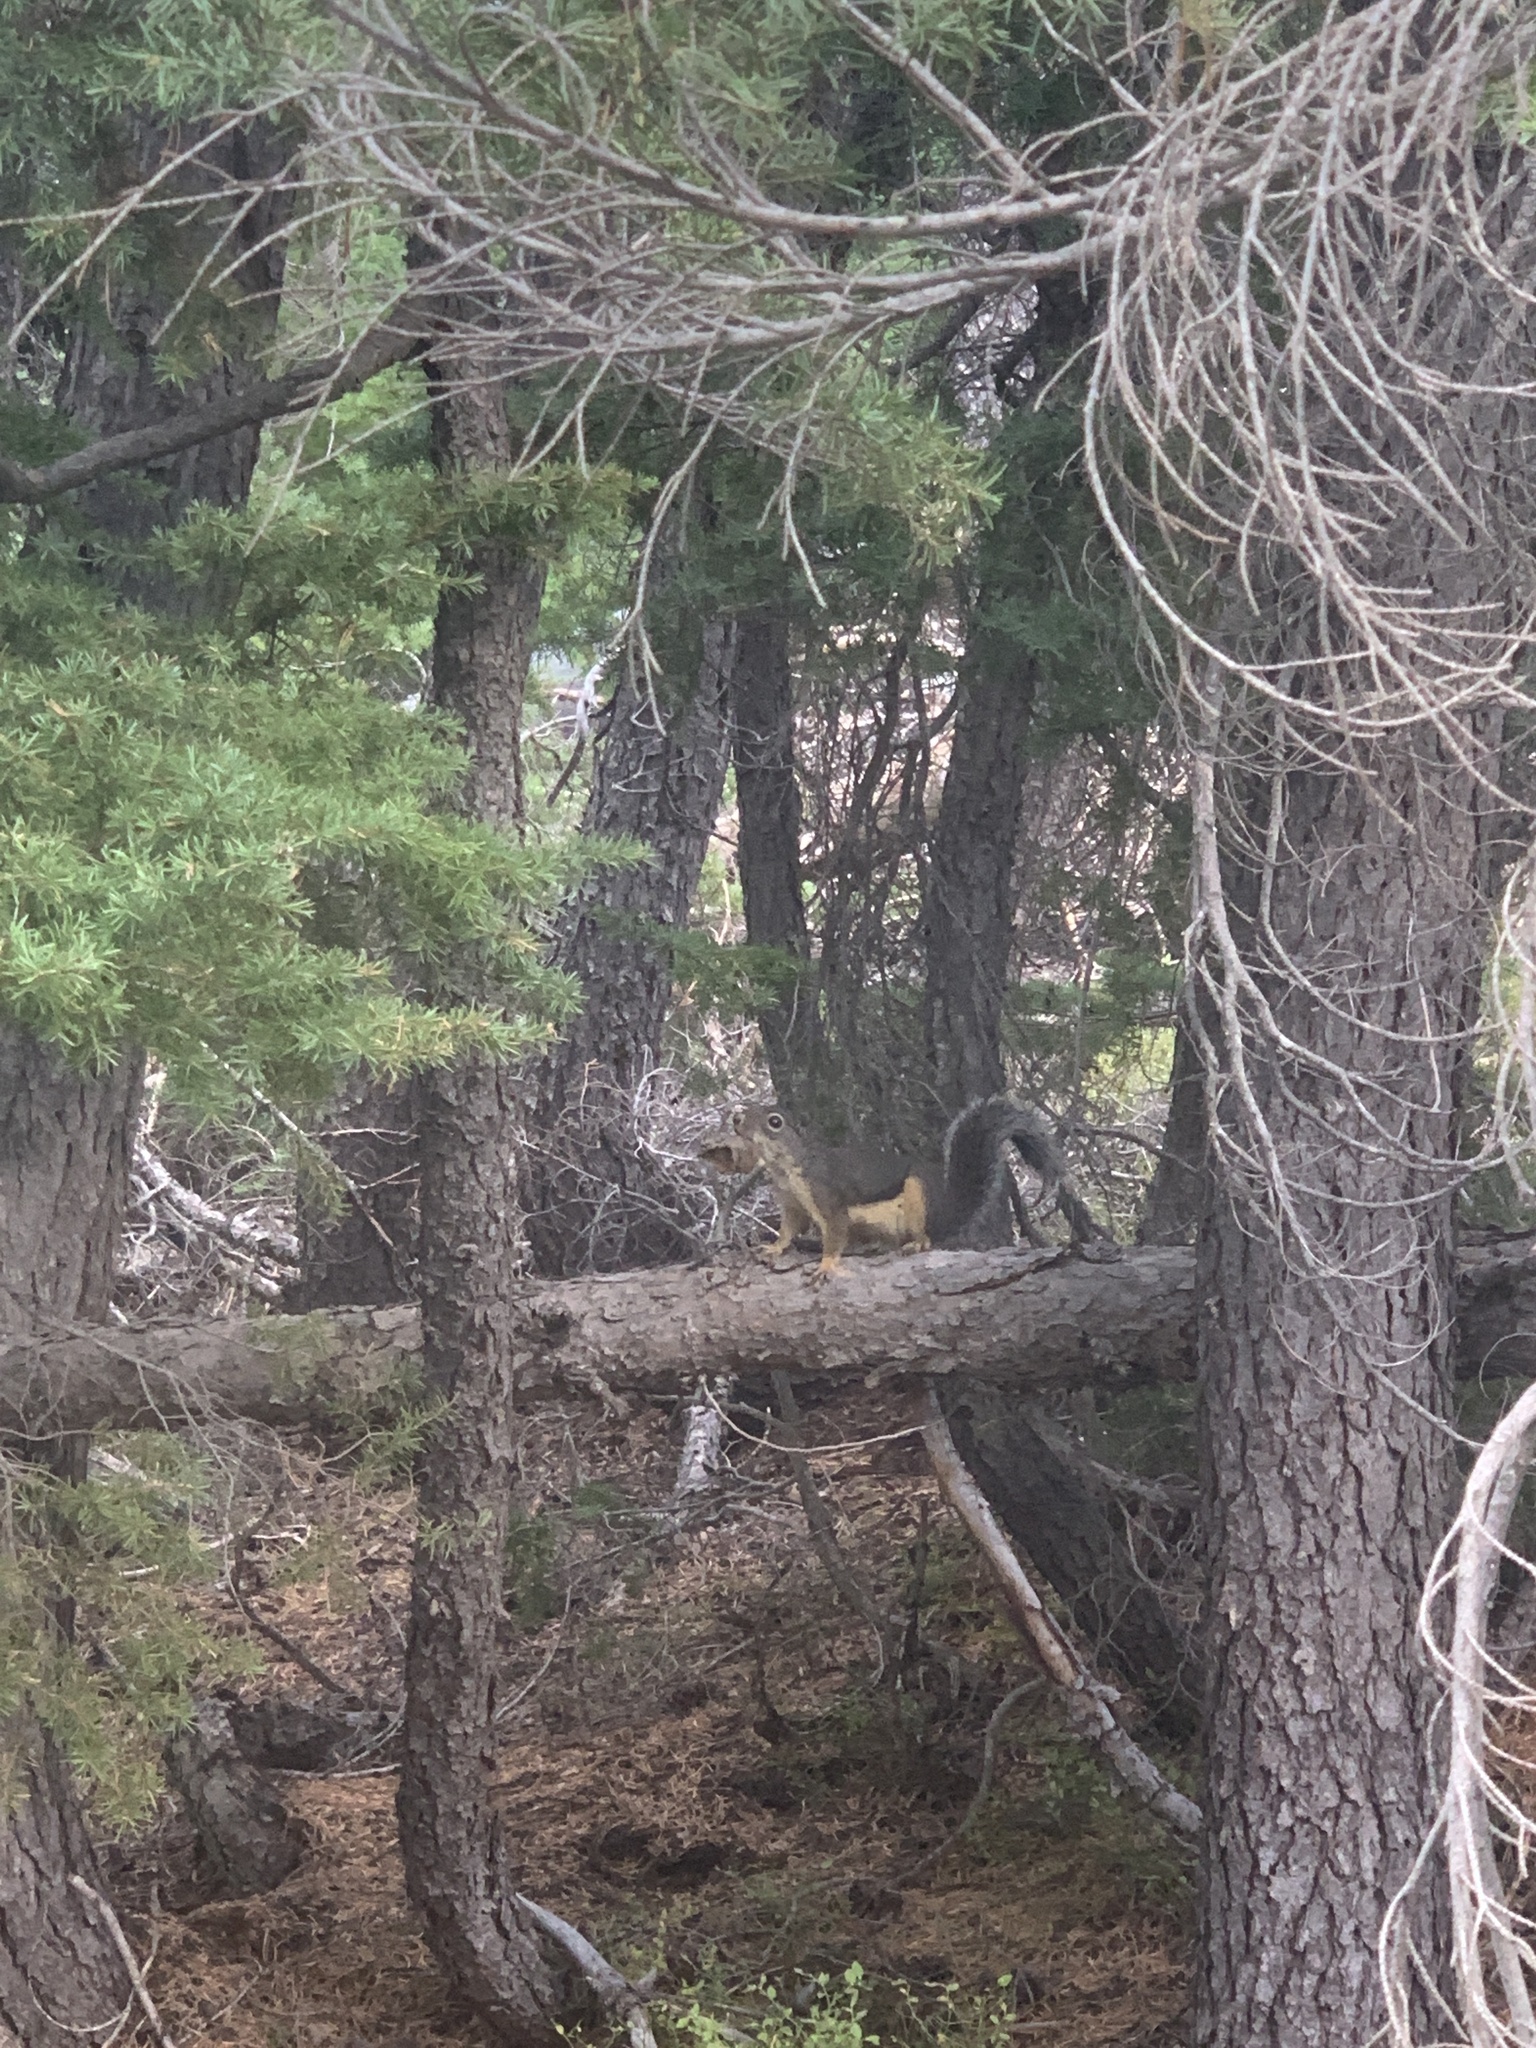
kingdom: Animalia
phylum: Chordata
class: Mammalia
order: Rodentia
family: Sciuridae
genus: Tamiasciurus
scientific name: Tamiasciurus douglasii
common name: Douglas's squirrel
